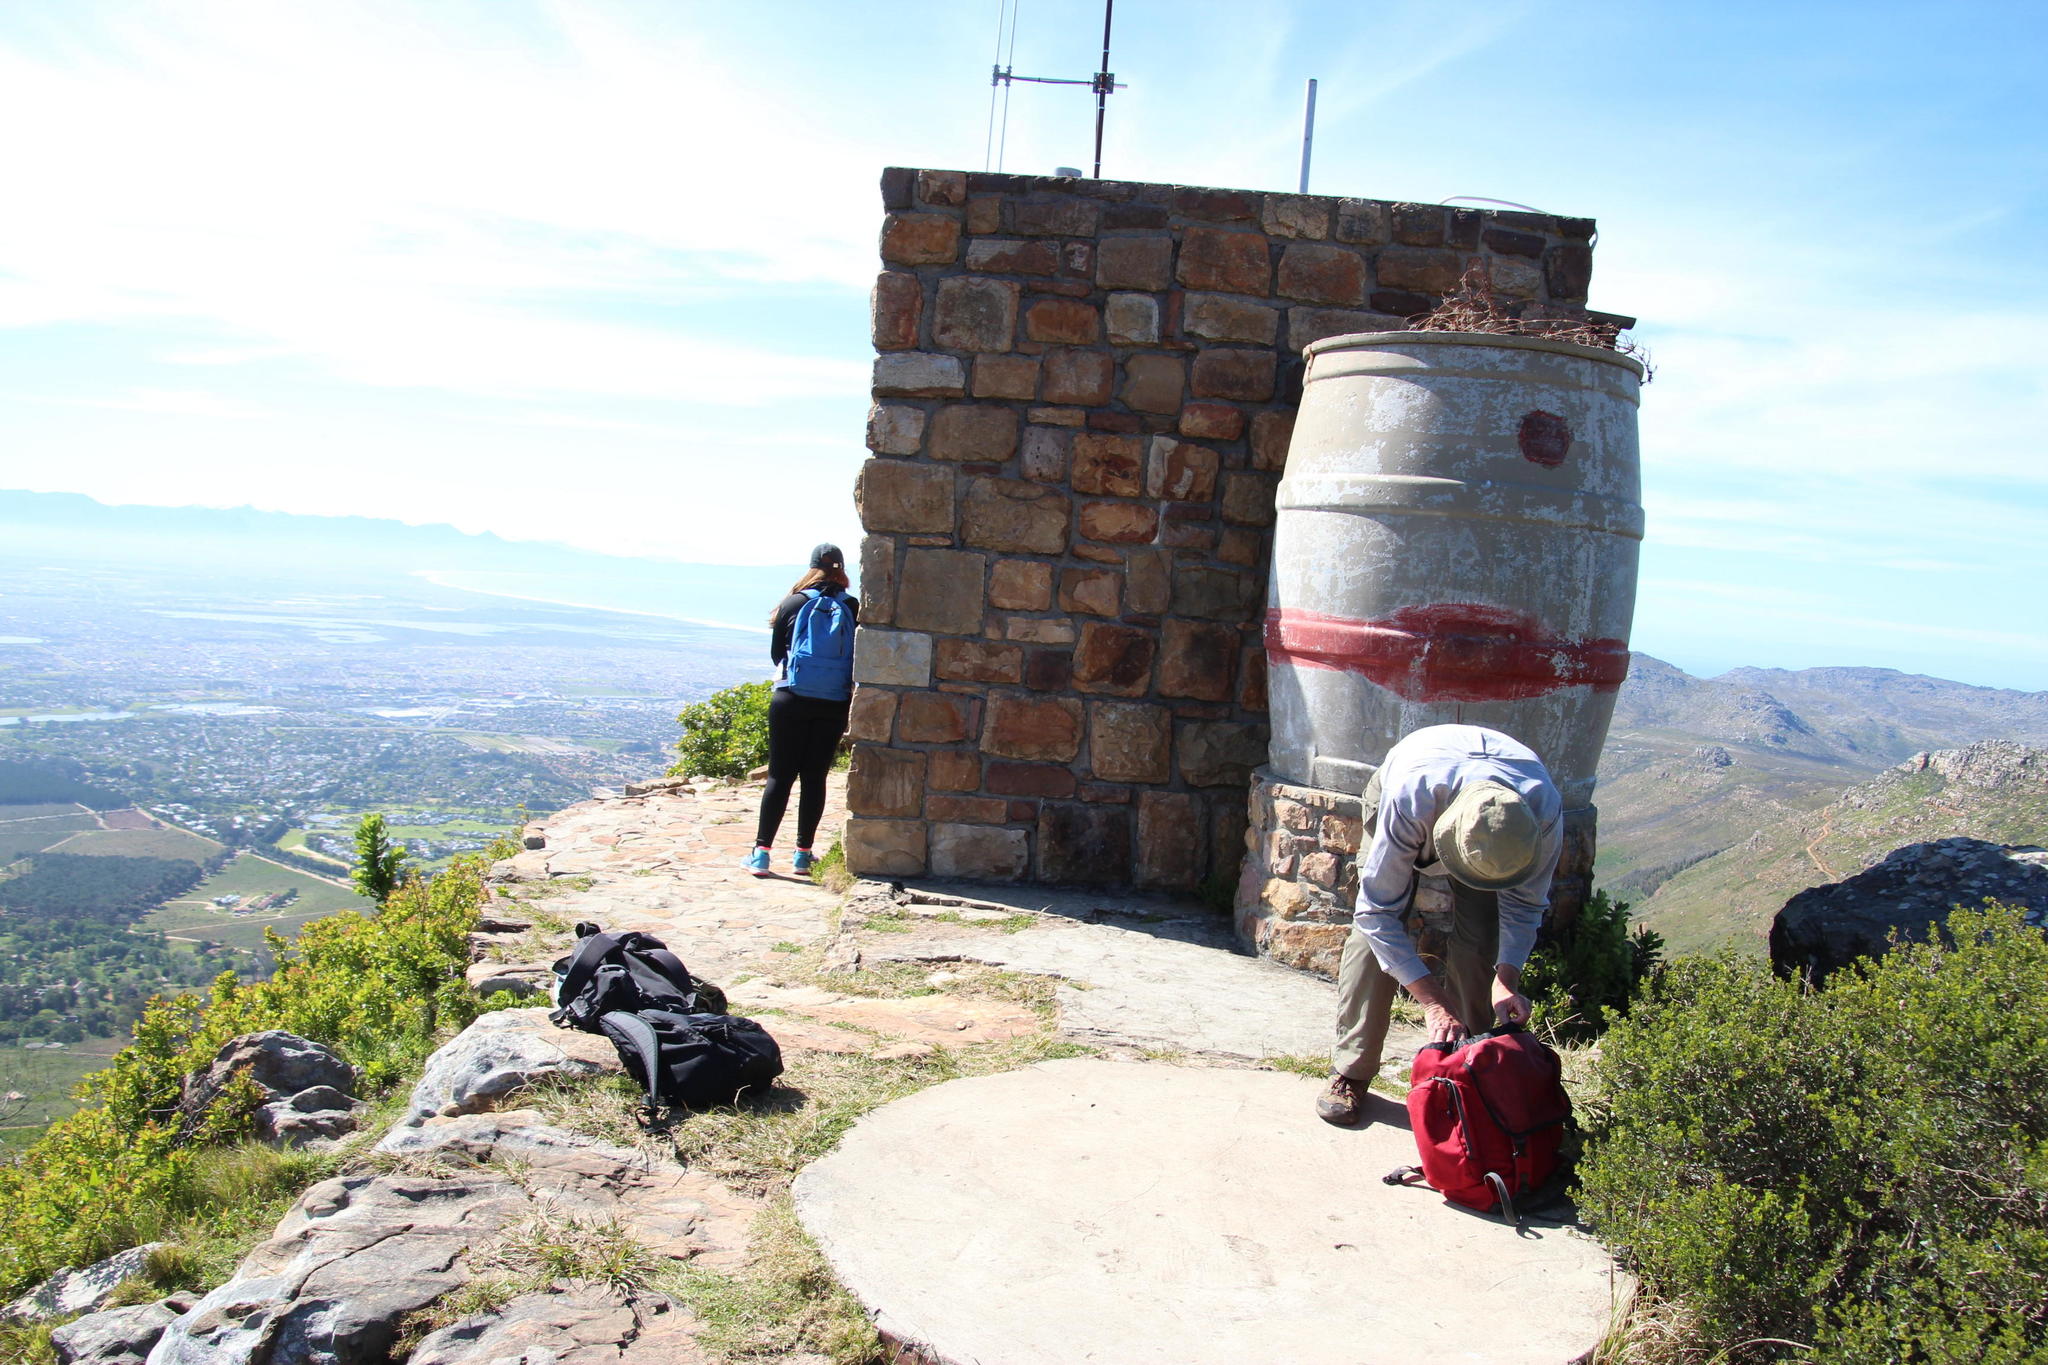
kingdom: Plantae
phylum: Tracheophyta
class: Magnoliopsida
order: Sapindales
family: Anacardiaceae
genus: Searsia
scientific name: Searsia laevigata
